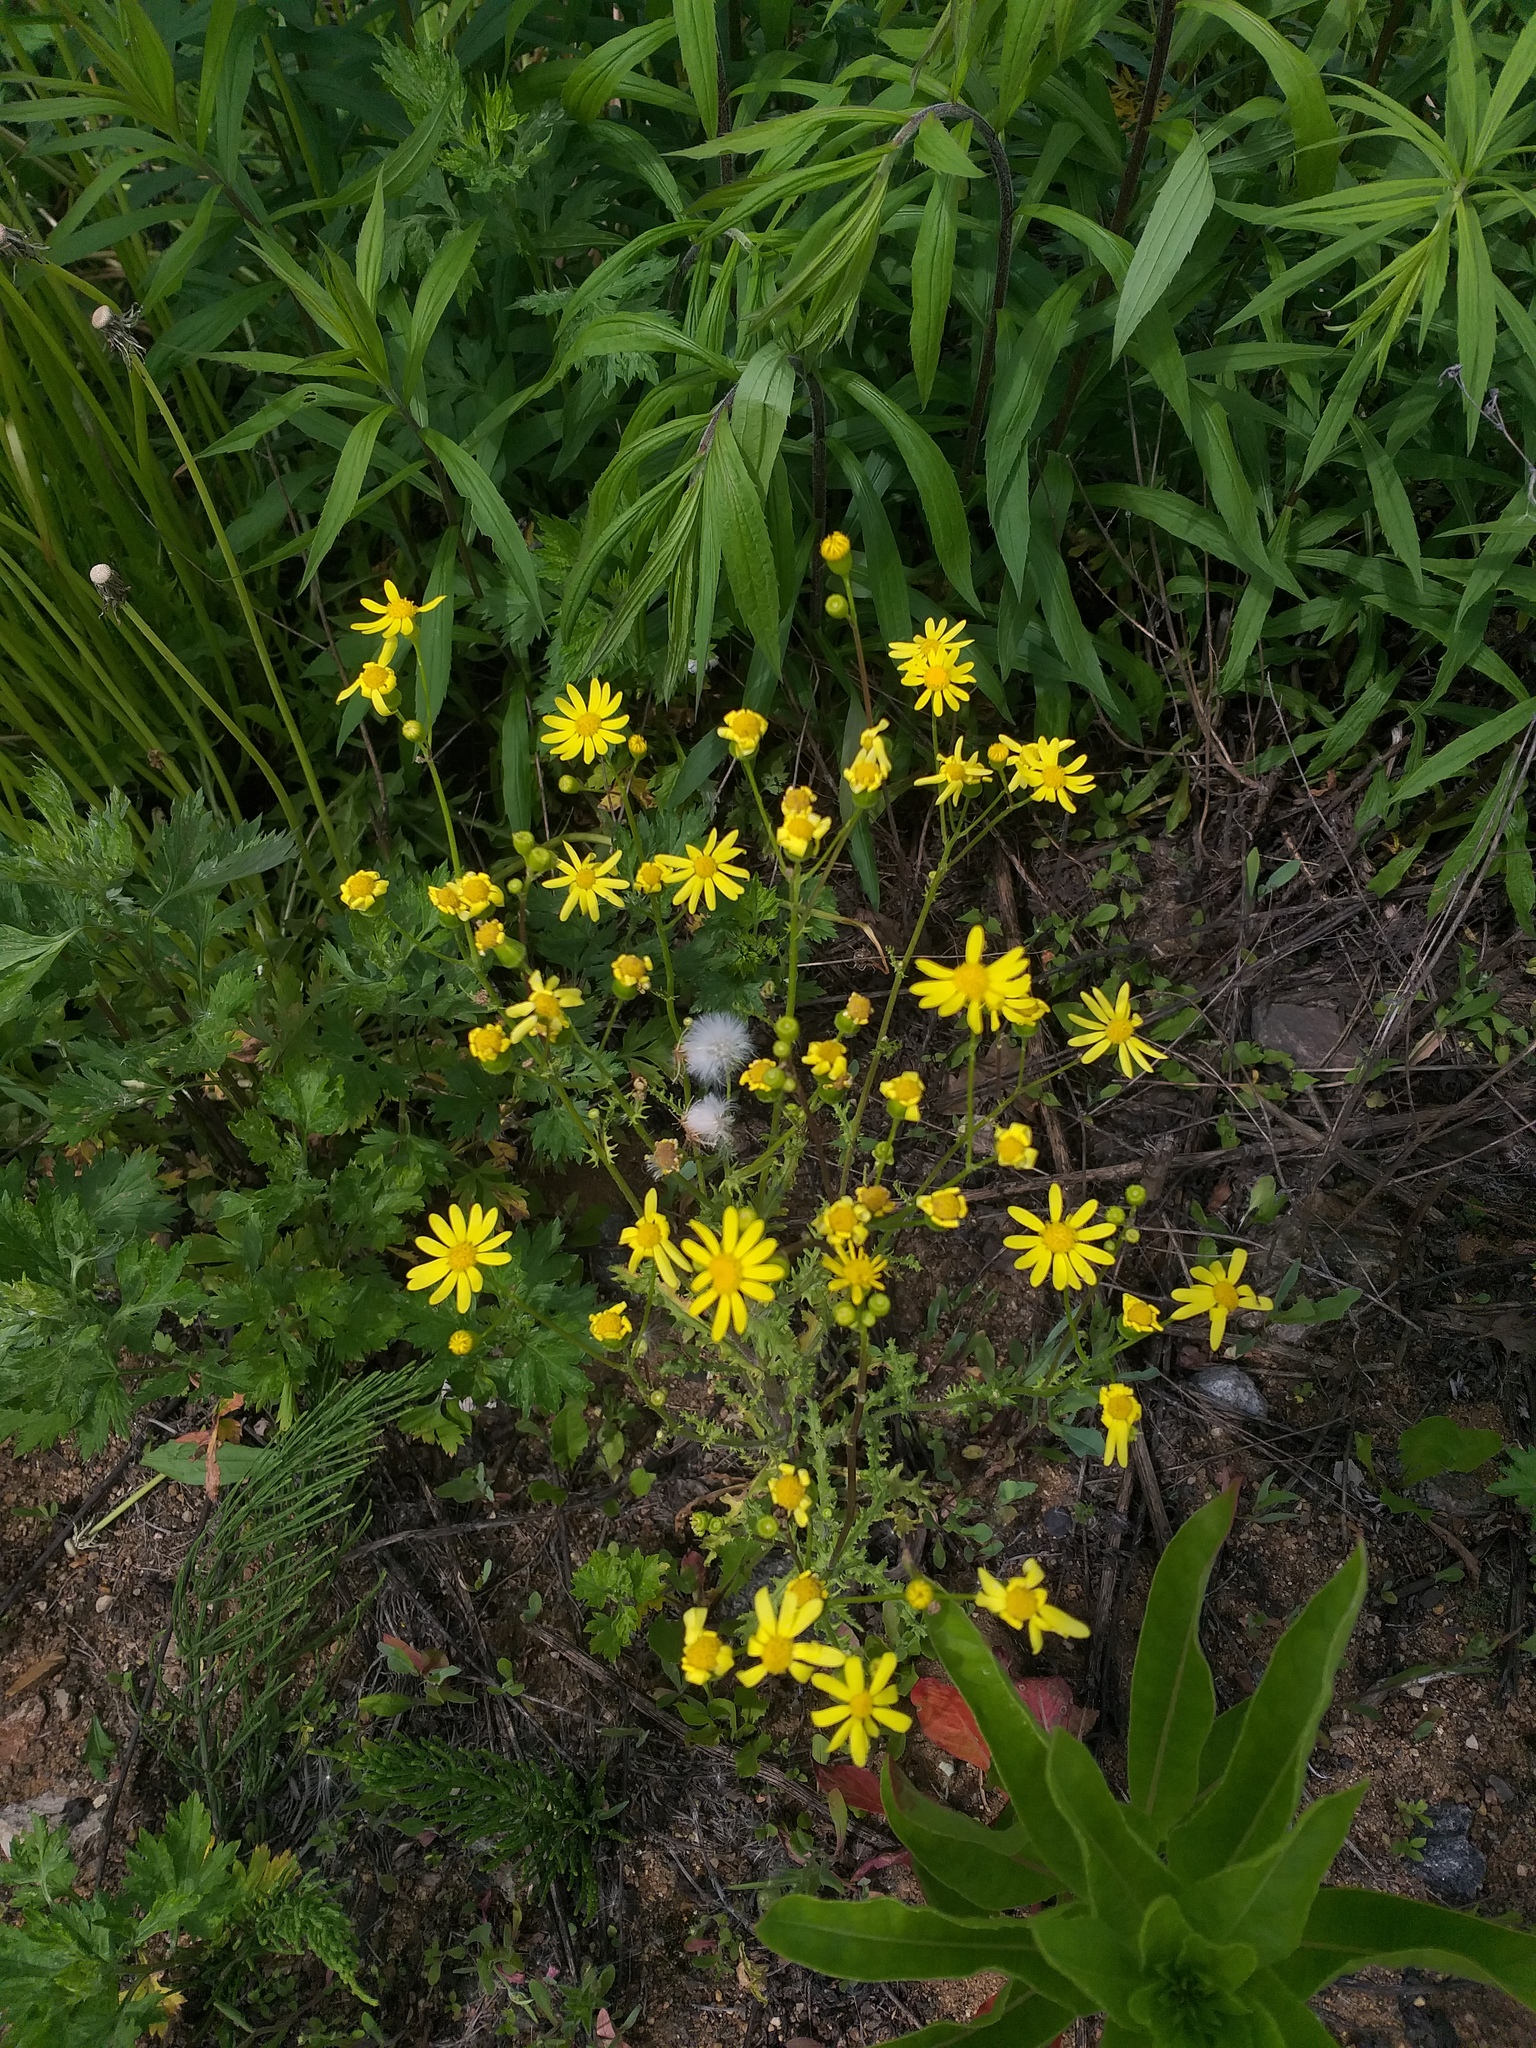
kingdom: Plantae
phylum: Tracheophyta
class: Magnoliopsida
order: Asterales
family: Asteraceae
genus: Senecio
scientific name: Senecio vernalis
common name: Eastern groundsel
